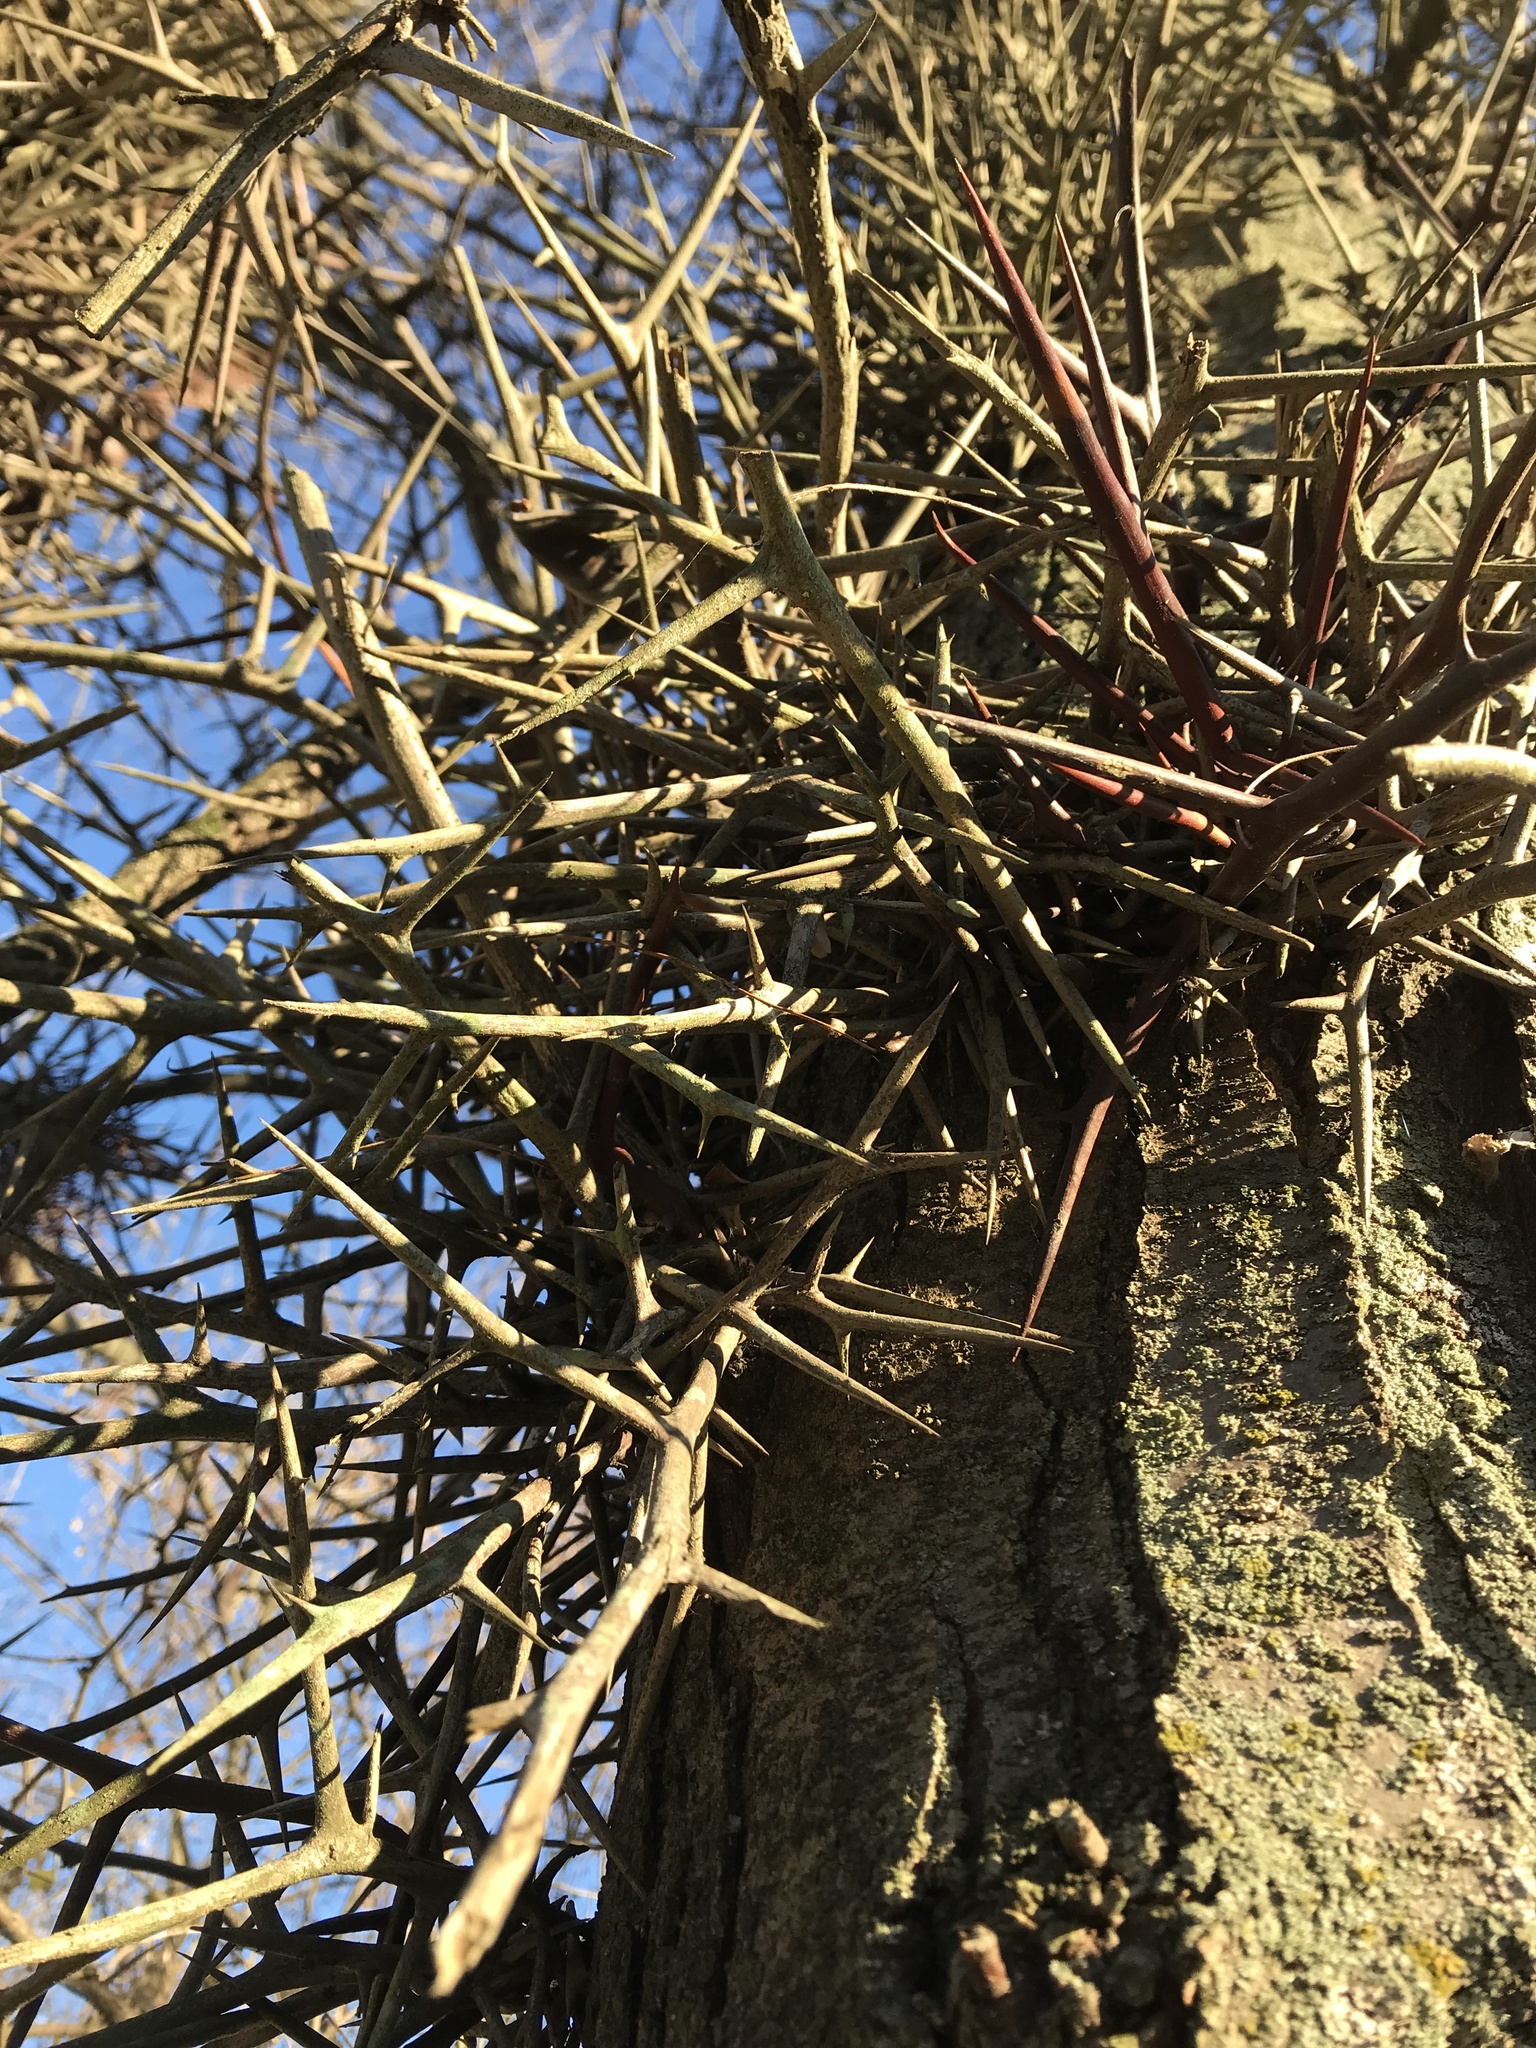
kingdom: Plantae
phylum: Tracheophyta
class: Magnoliopsida
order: Fabales
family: Fabaceae
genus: Gleditsia
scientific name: Gleditsia triacanthos
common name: Common honeylocust
